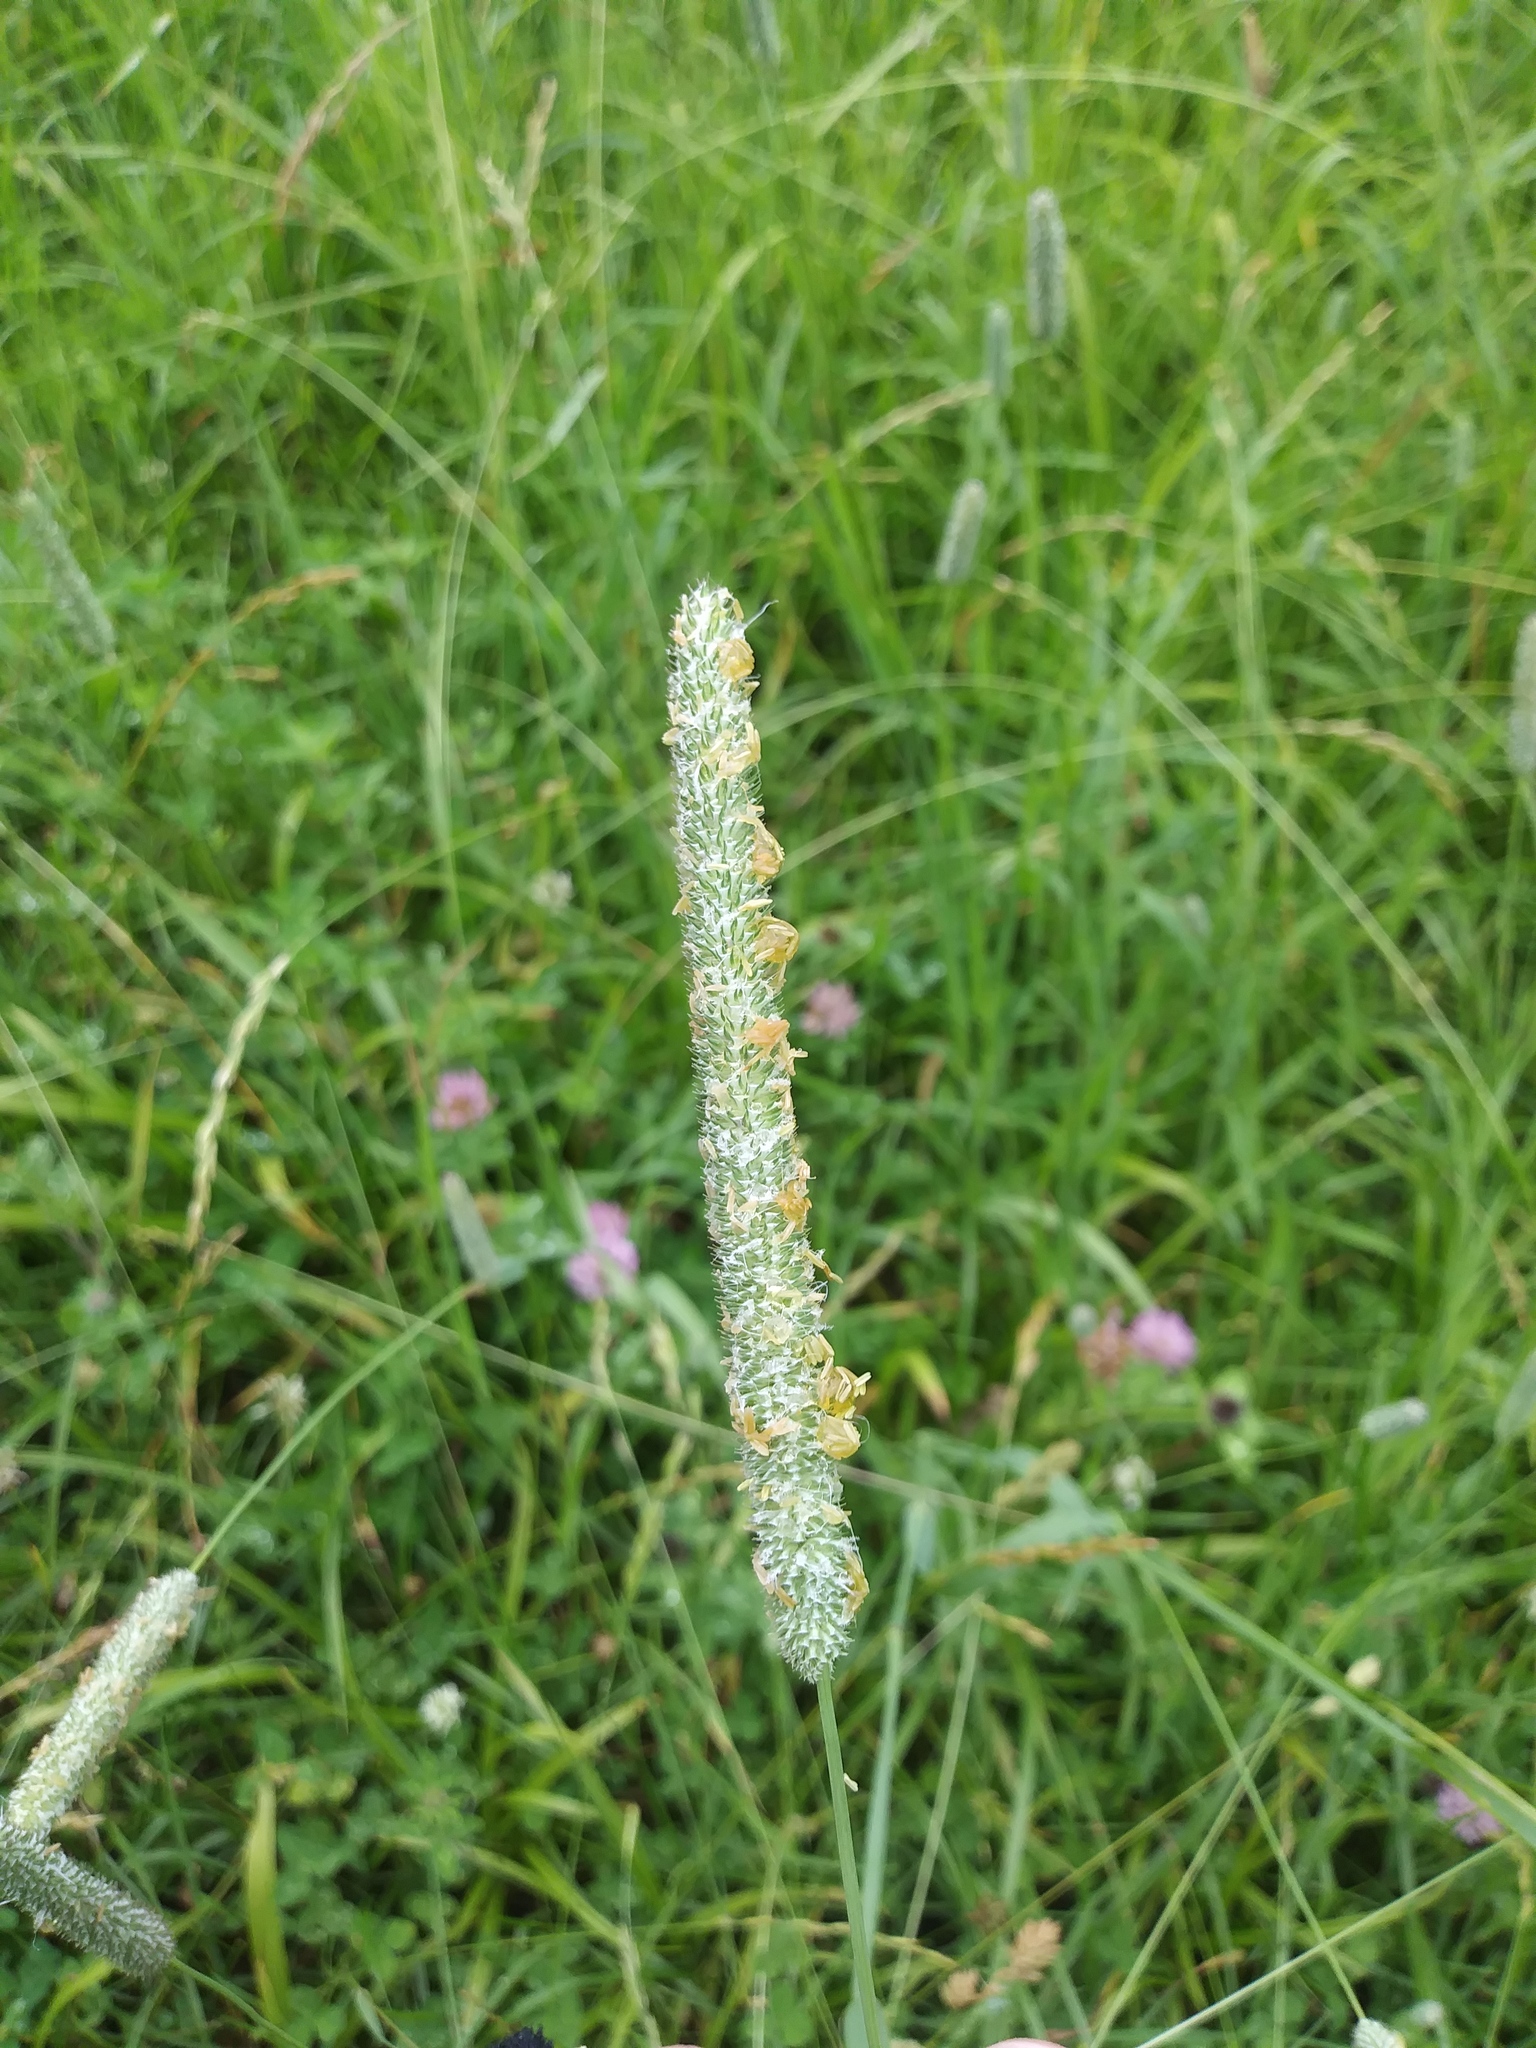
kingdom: Plantae
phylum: Tracheophyta
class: Liliopsida
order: Poales
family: Poaceae
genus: Phleum
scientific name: Phleum pratense
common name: Timothy grass
